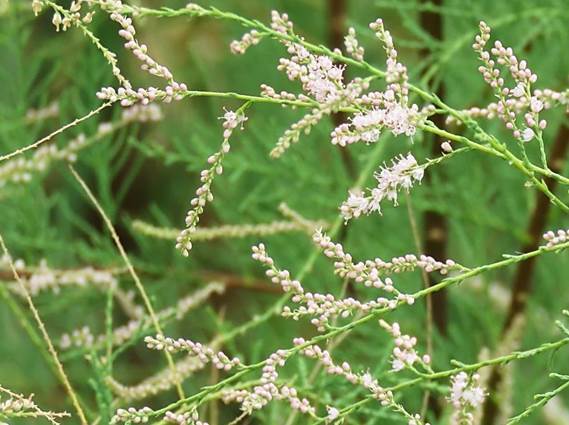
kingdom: Plantae
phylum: Tracheophyta
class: Magnoliopsida
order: Caryophyllales
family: Tamaricaceae
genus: Tamarix
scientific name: Tamarix ramosissima
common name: Pink tamarisk
